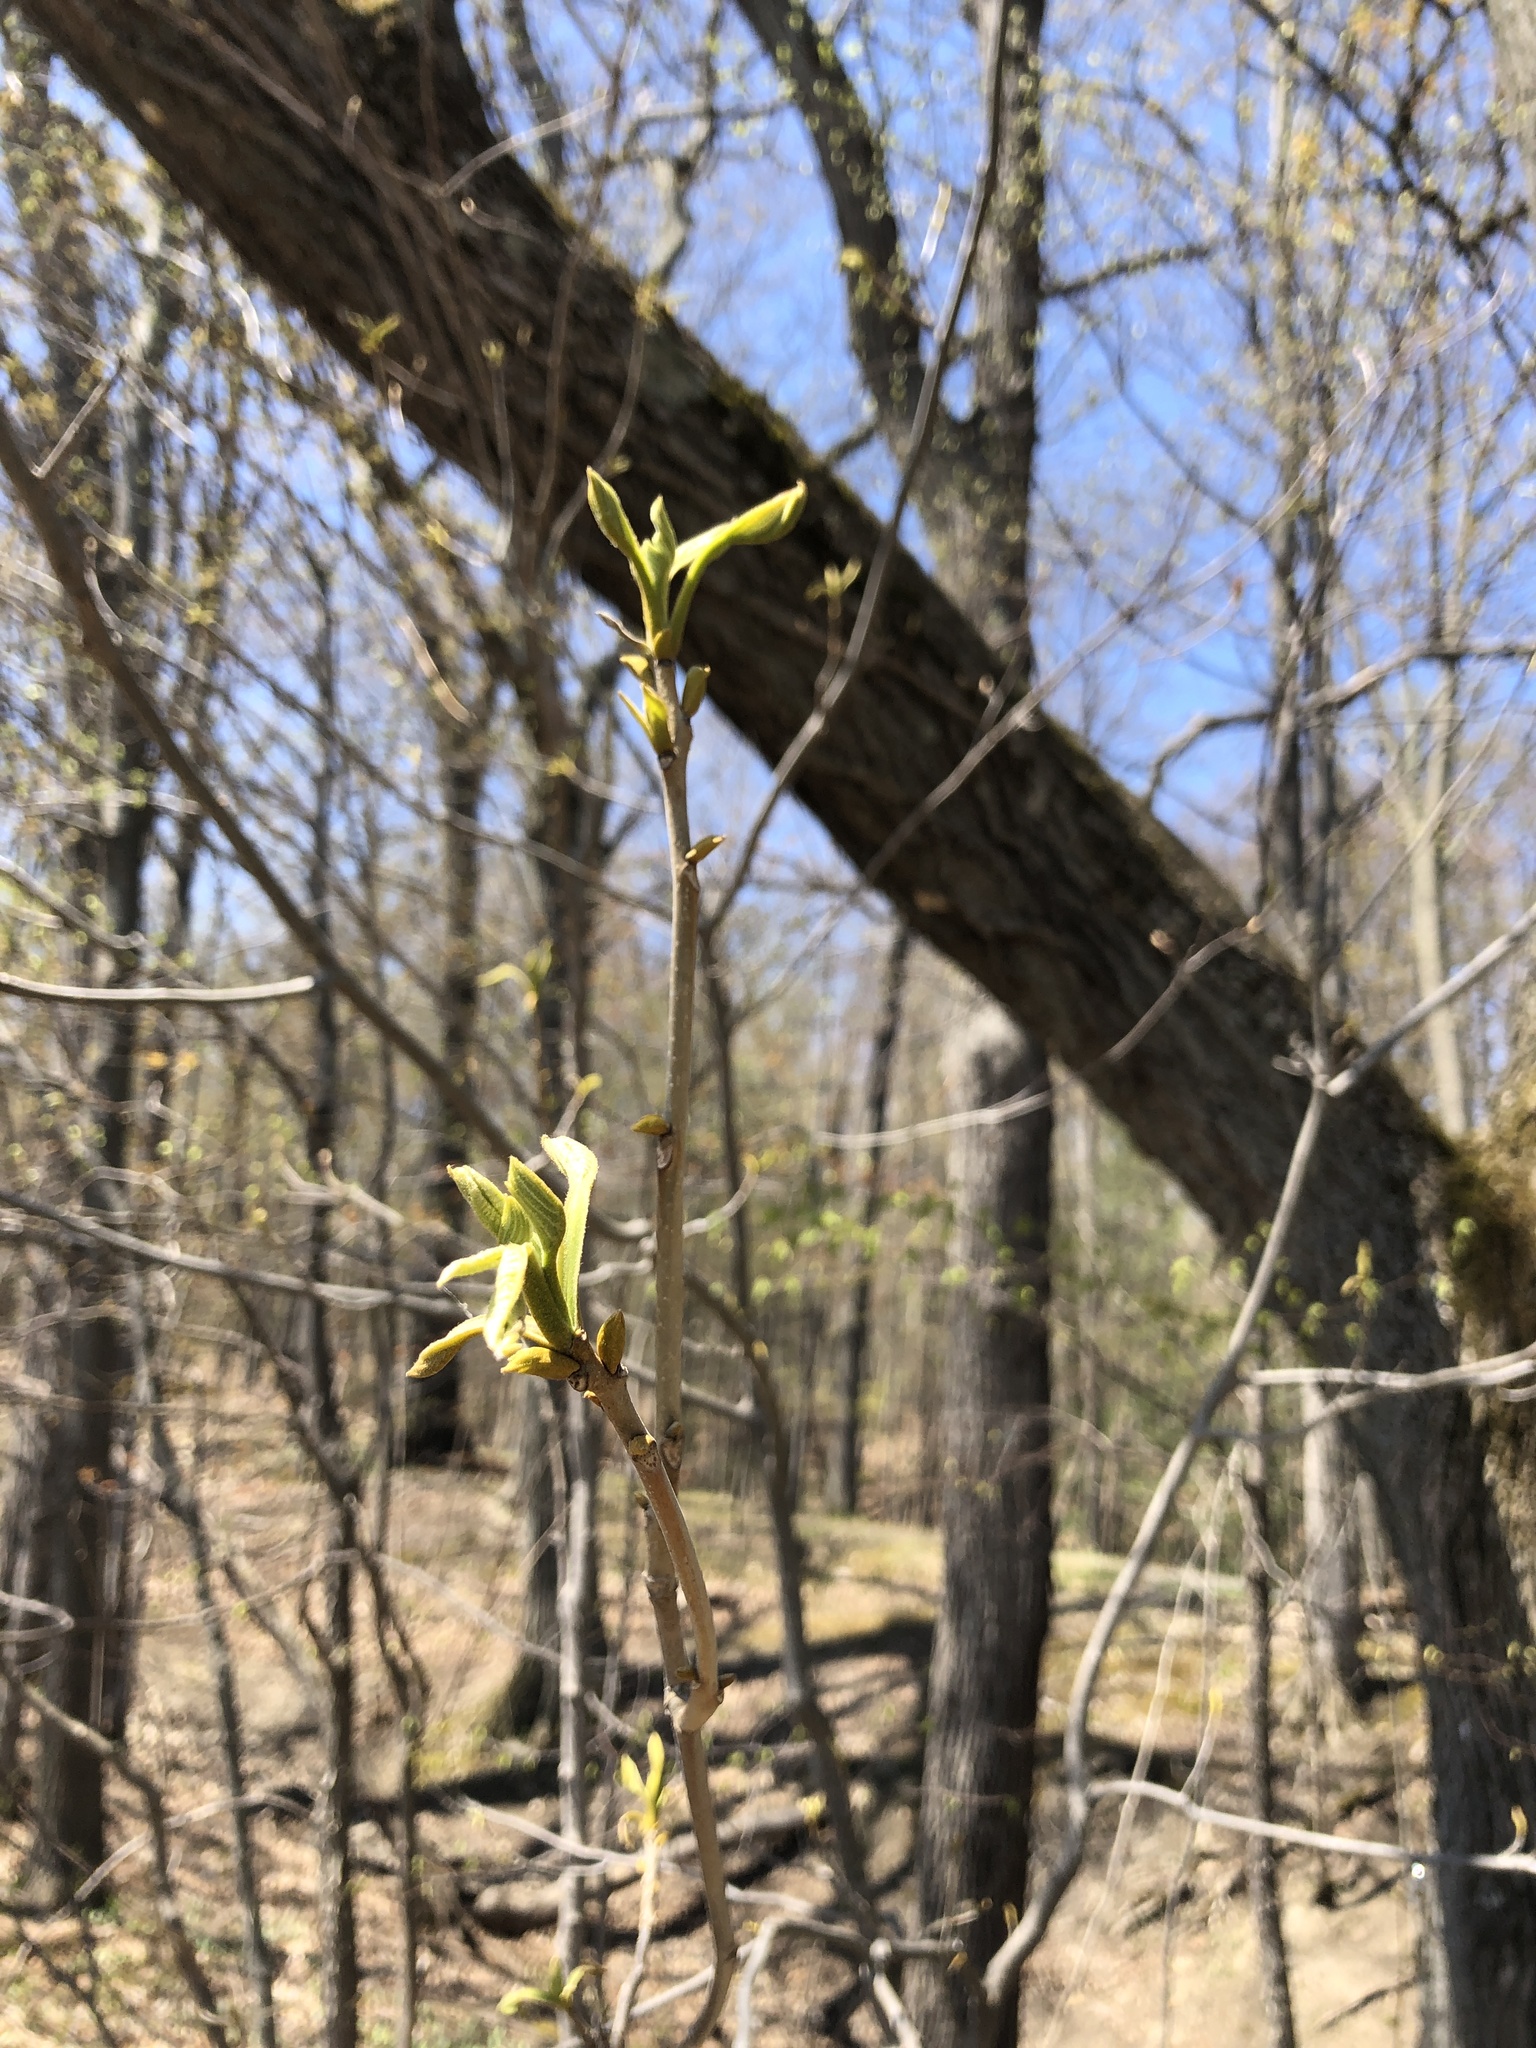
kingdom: Plantae
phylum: Tracheophyta
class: Magnoliopsida
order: Fagales
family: Juglandaceae
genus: Carya
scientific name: Carya cordiformis
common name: Bitternut hickory
